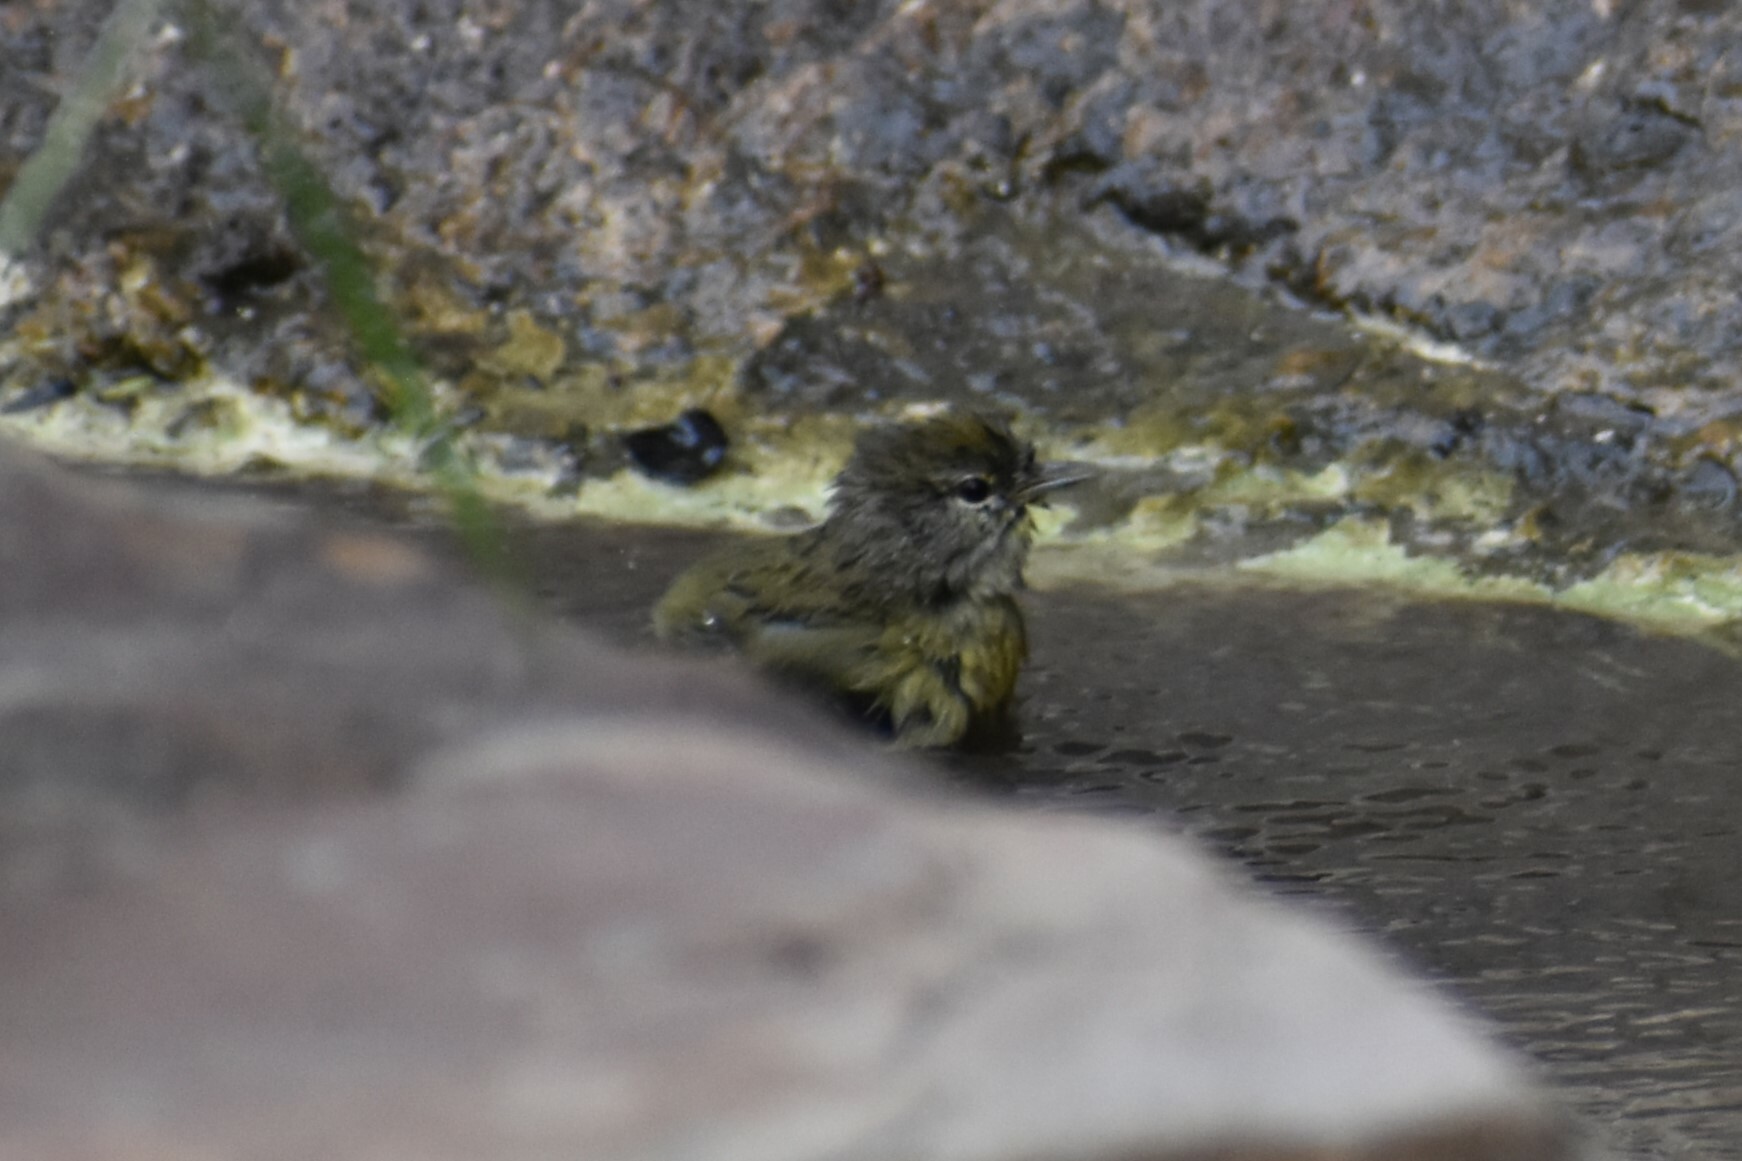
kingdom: Animalia
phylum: Chordata
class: Aves
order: Passeriformes
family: Parulidae
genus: Leiothlypis
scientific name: Leiothlypis celata
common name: Orange-crowned warbler
